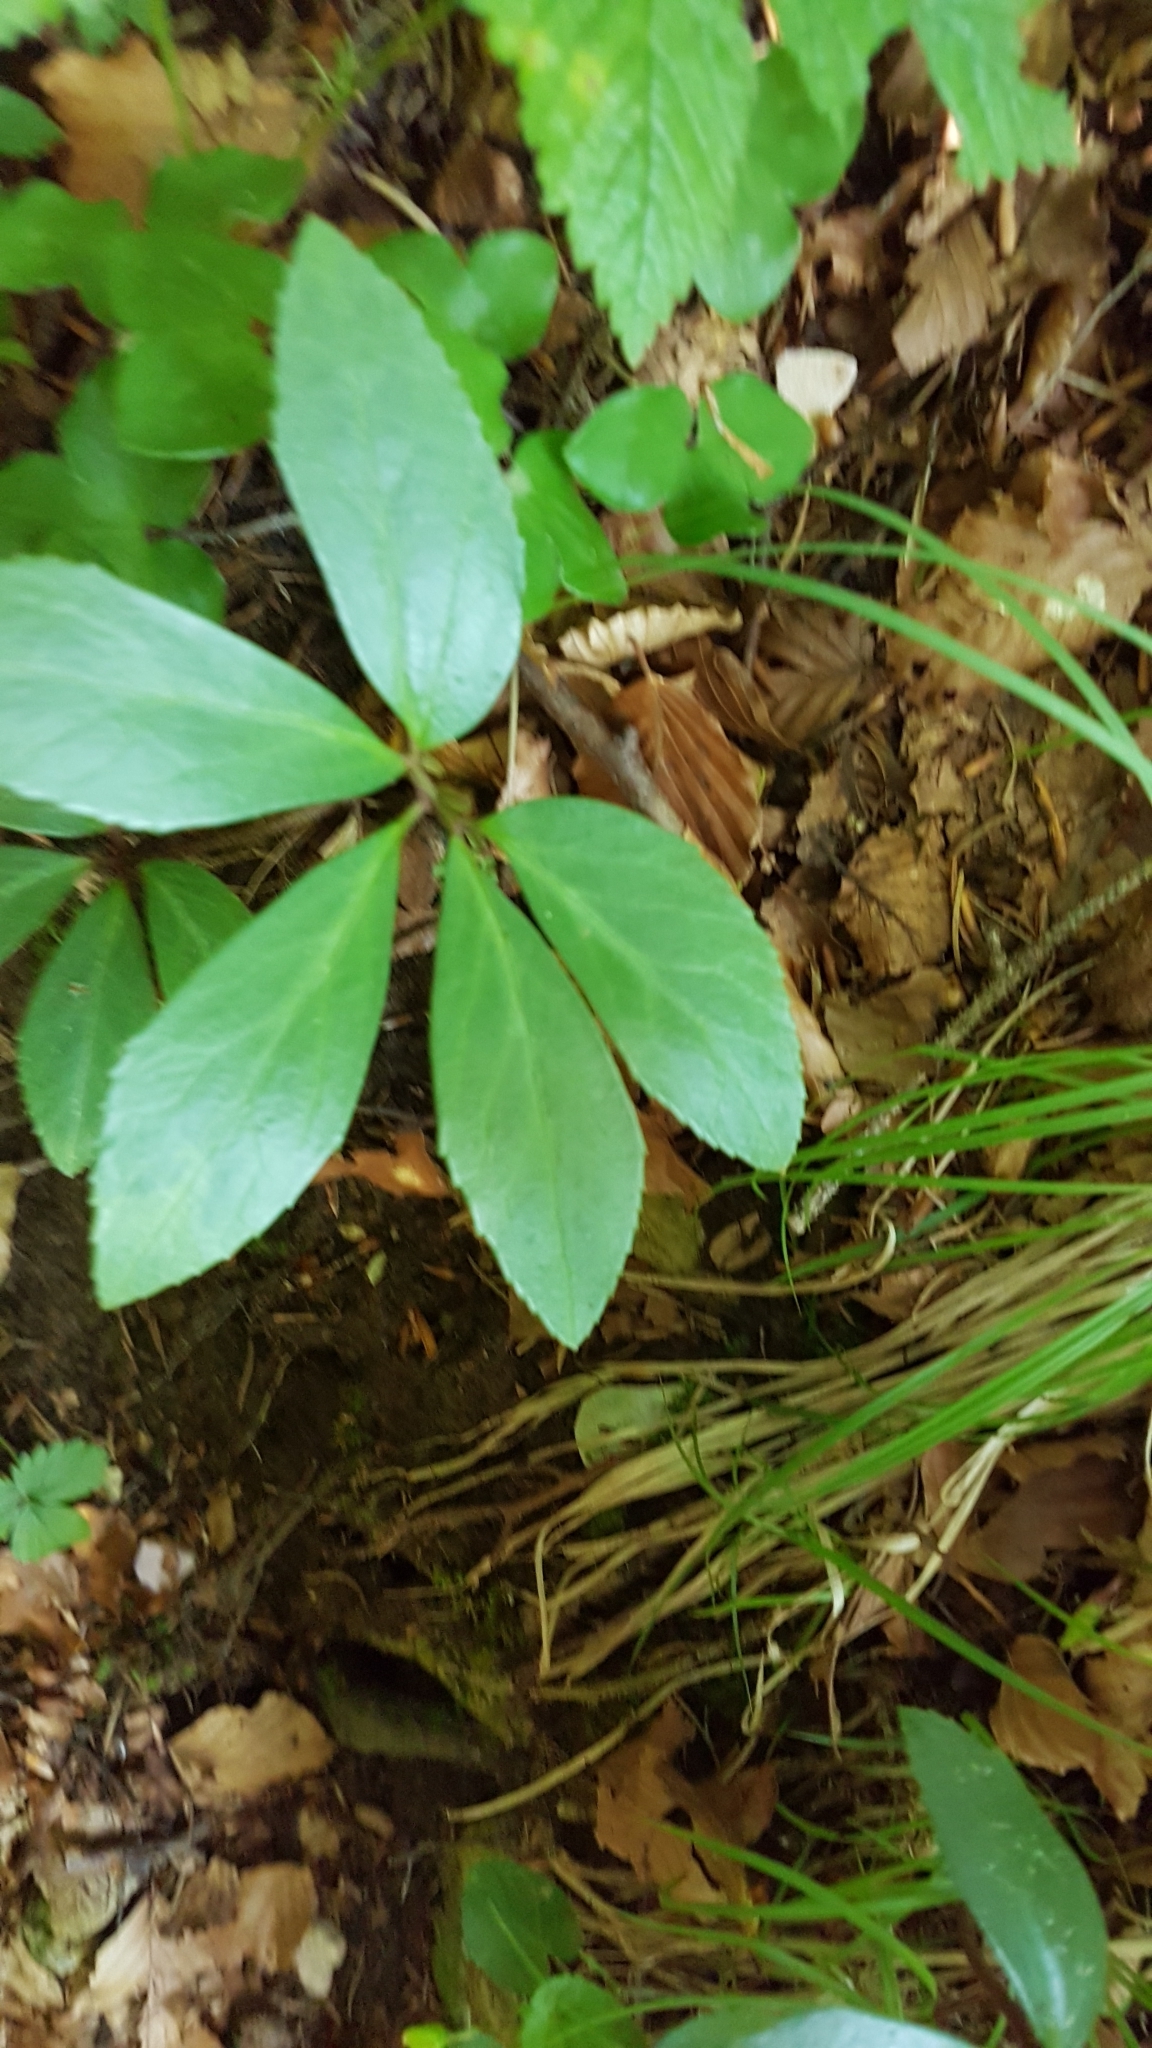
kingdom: Plantae
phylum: Tracheophyta
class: Magnoliopsida
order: Ranunculales
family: Ranunculaceae
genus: Helleborus
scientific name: Helleborus niger
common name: Black hellebore
